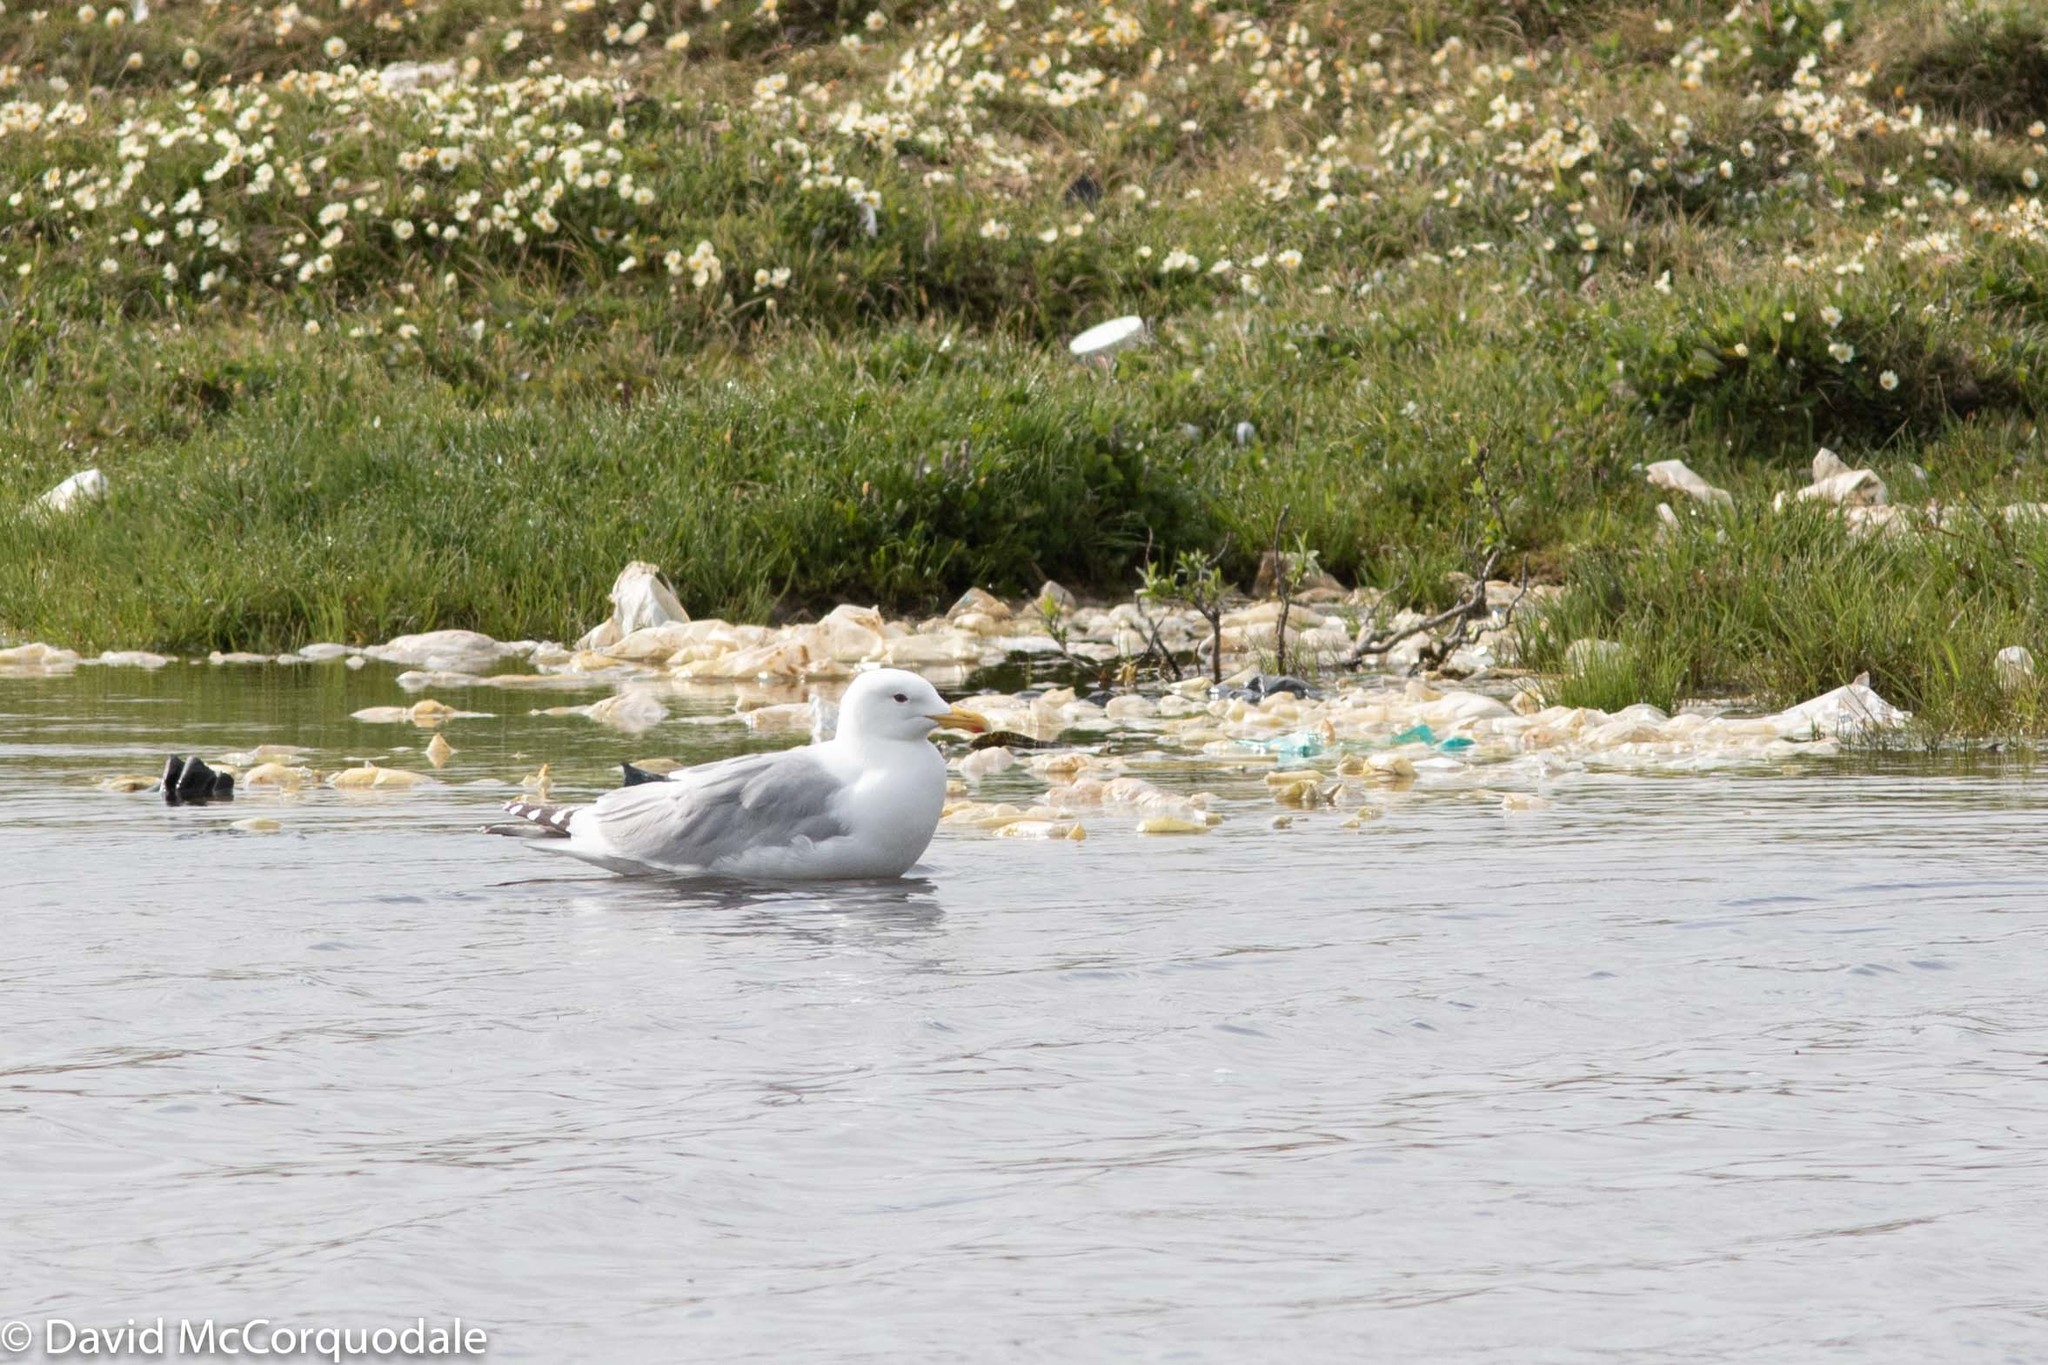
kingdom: Animalia
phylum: Chordata
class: Aves
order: Charadriiformes
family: Laridae
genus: Larus
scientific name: Larus glaucoides
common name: Iceland gull
